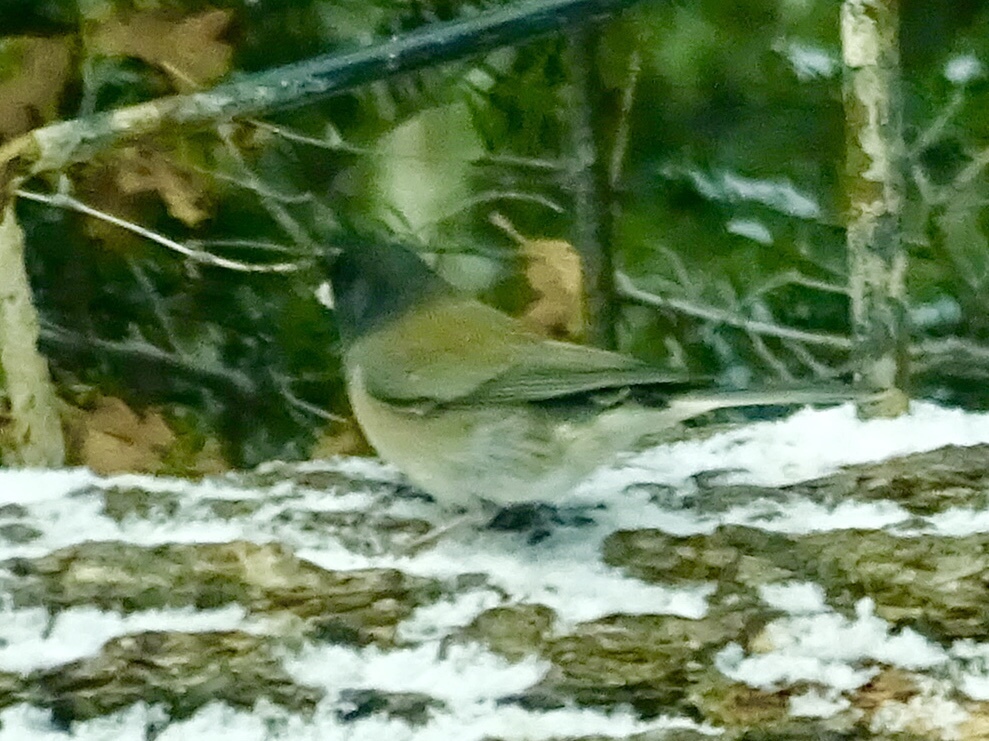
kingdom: Animalia
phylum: Chordata
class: Aves
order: Passeriformes
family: Passerellidae
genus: Junco
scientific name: Junco hyemalis
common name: Dark-eyed junco
